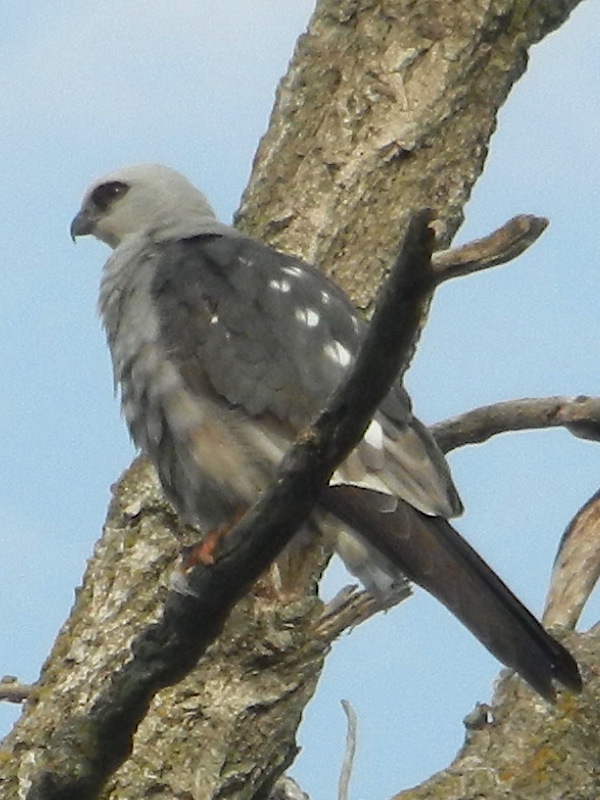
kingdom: Animalia
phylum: Chordata
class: Aves
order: Accipitriformes
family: Accipitridae
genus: Ictinia
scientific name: Ictinia mississippiensis
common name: Mississippi kite
